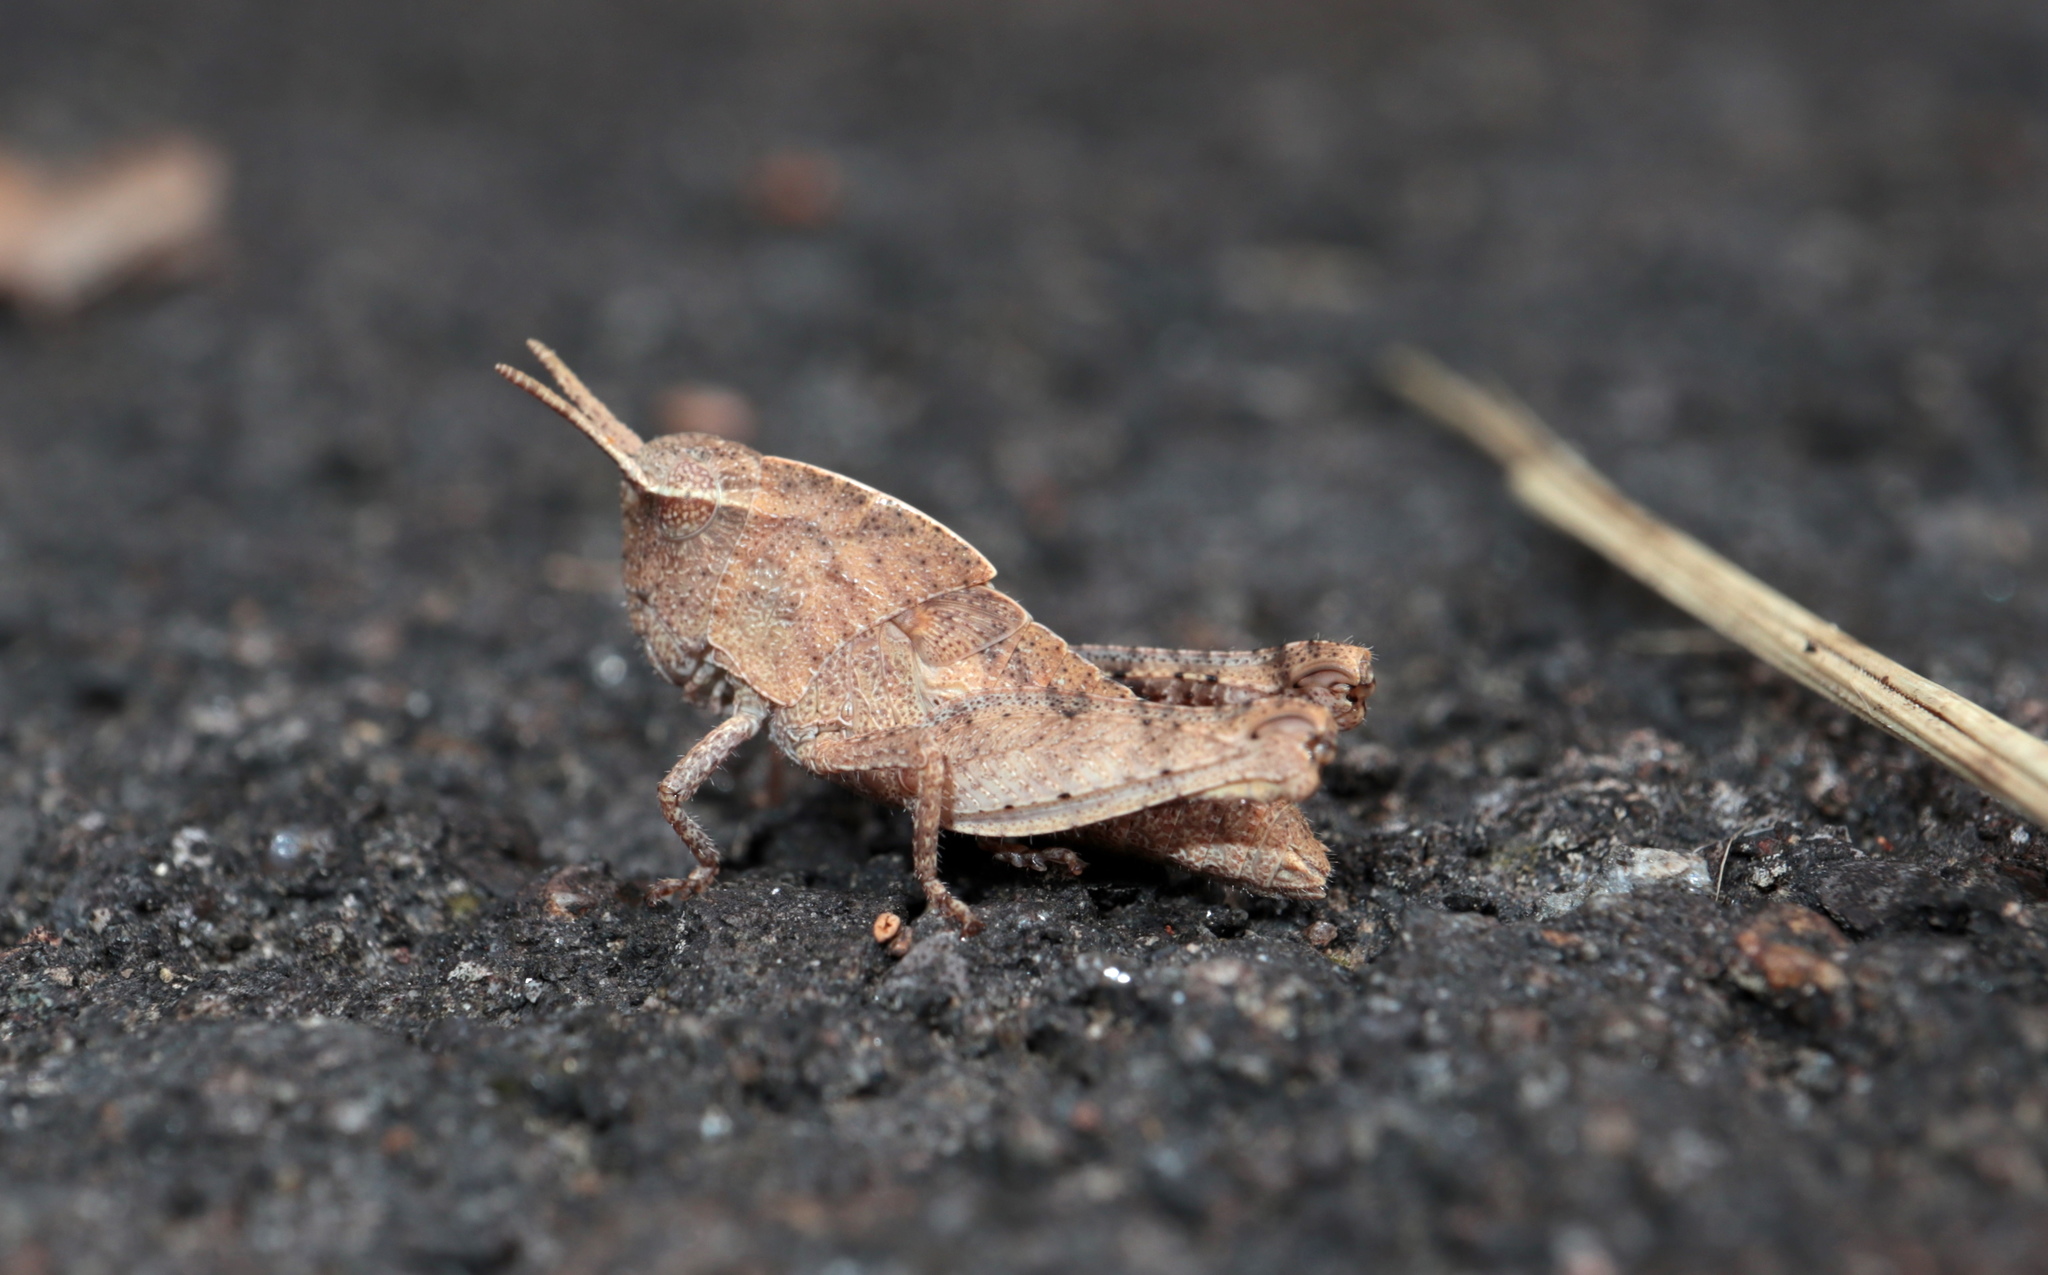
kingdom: Animalia
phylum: Arthropoda
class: Insecta
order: Orthoptera
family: Acrididae
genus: Chortophaga
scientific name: Chortophaga viridifasciata
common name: Green-striped grasshopper
